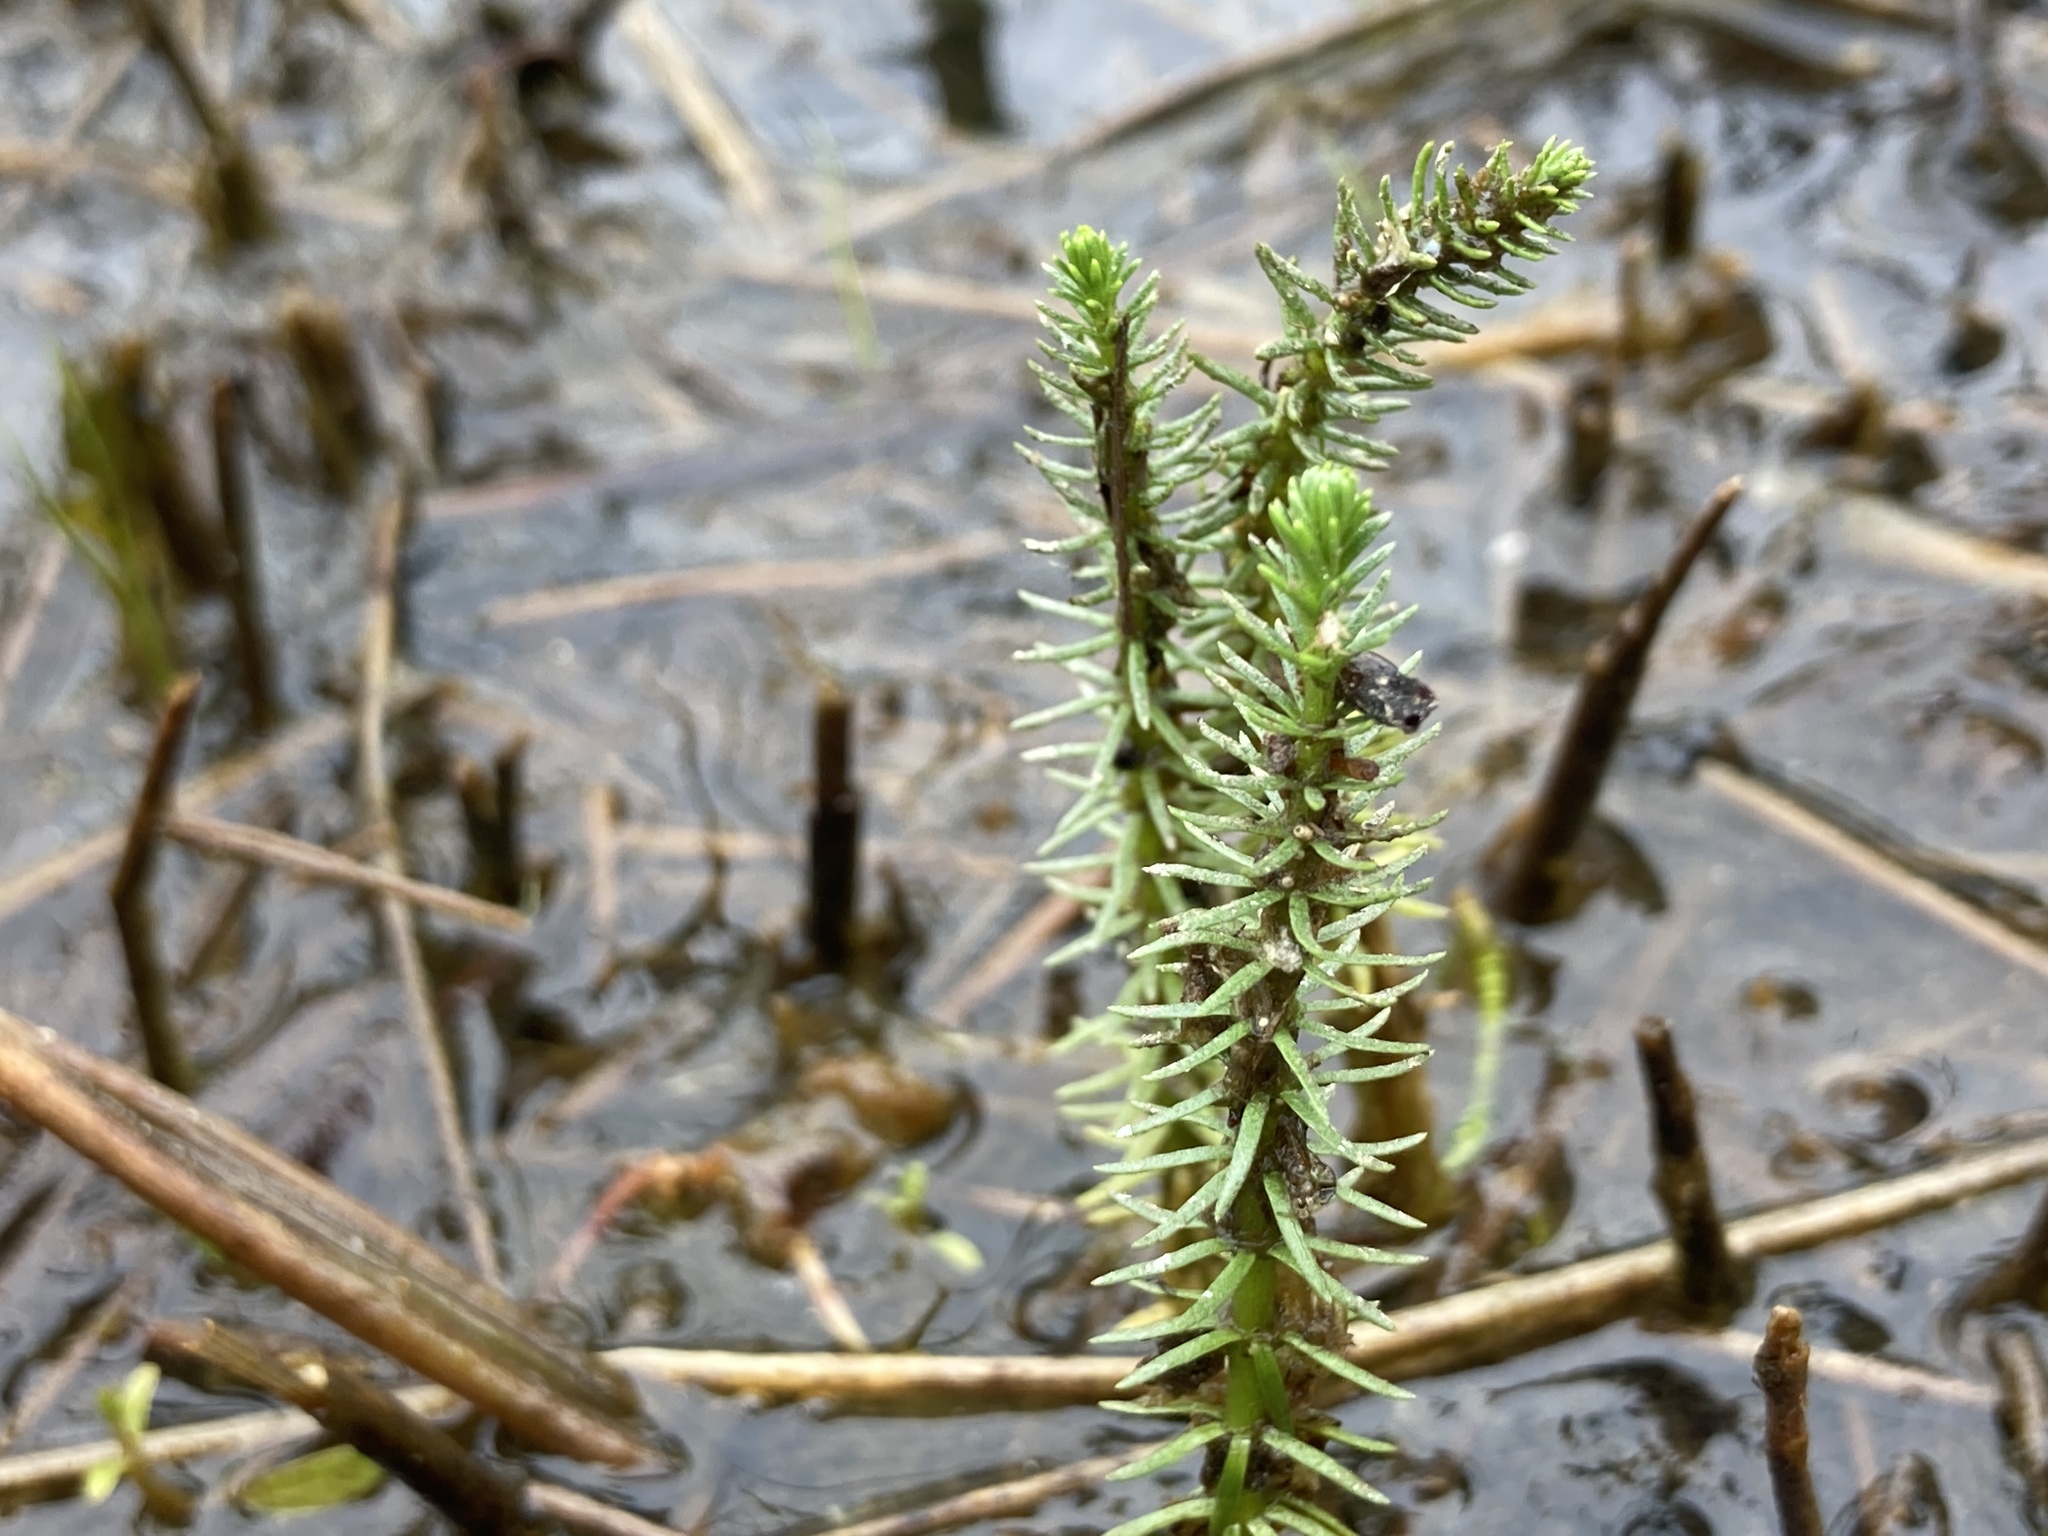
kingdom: Plantae
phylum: Tracheophyta
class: Magnoliopsida
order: Lamiales
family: Plantaginaceae
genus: Hippuris
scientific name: Hippuris vulgaris
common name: Mare's-tail
